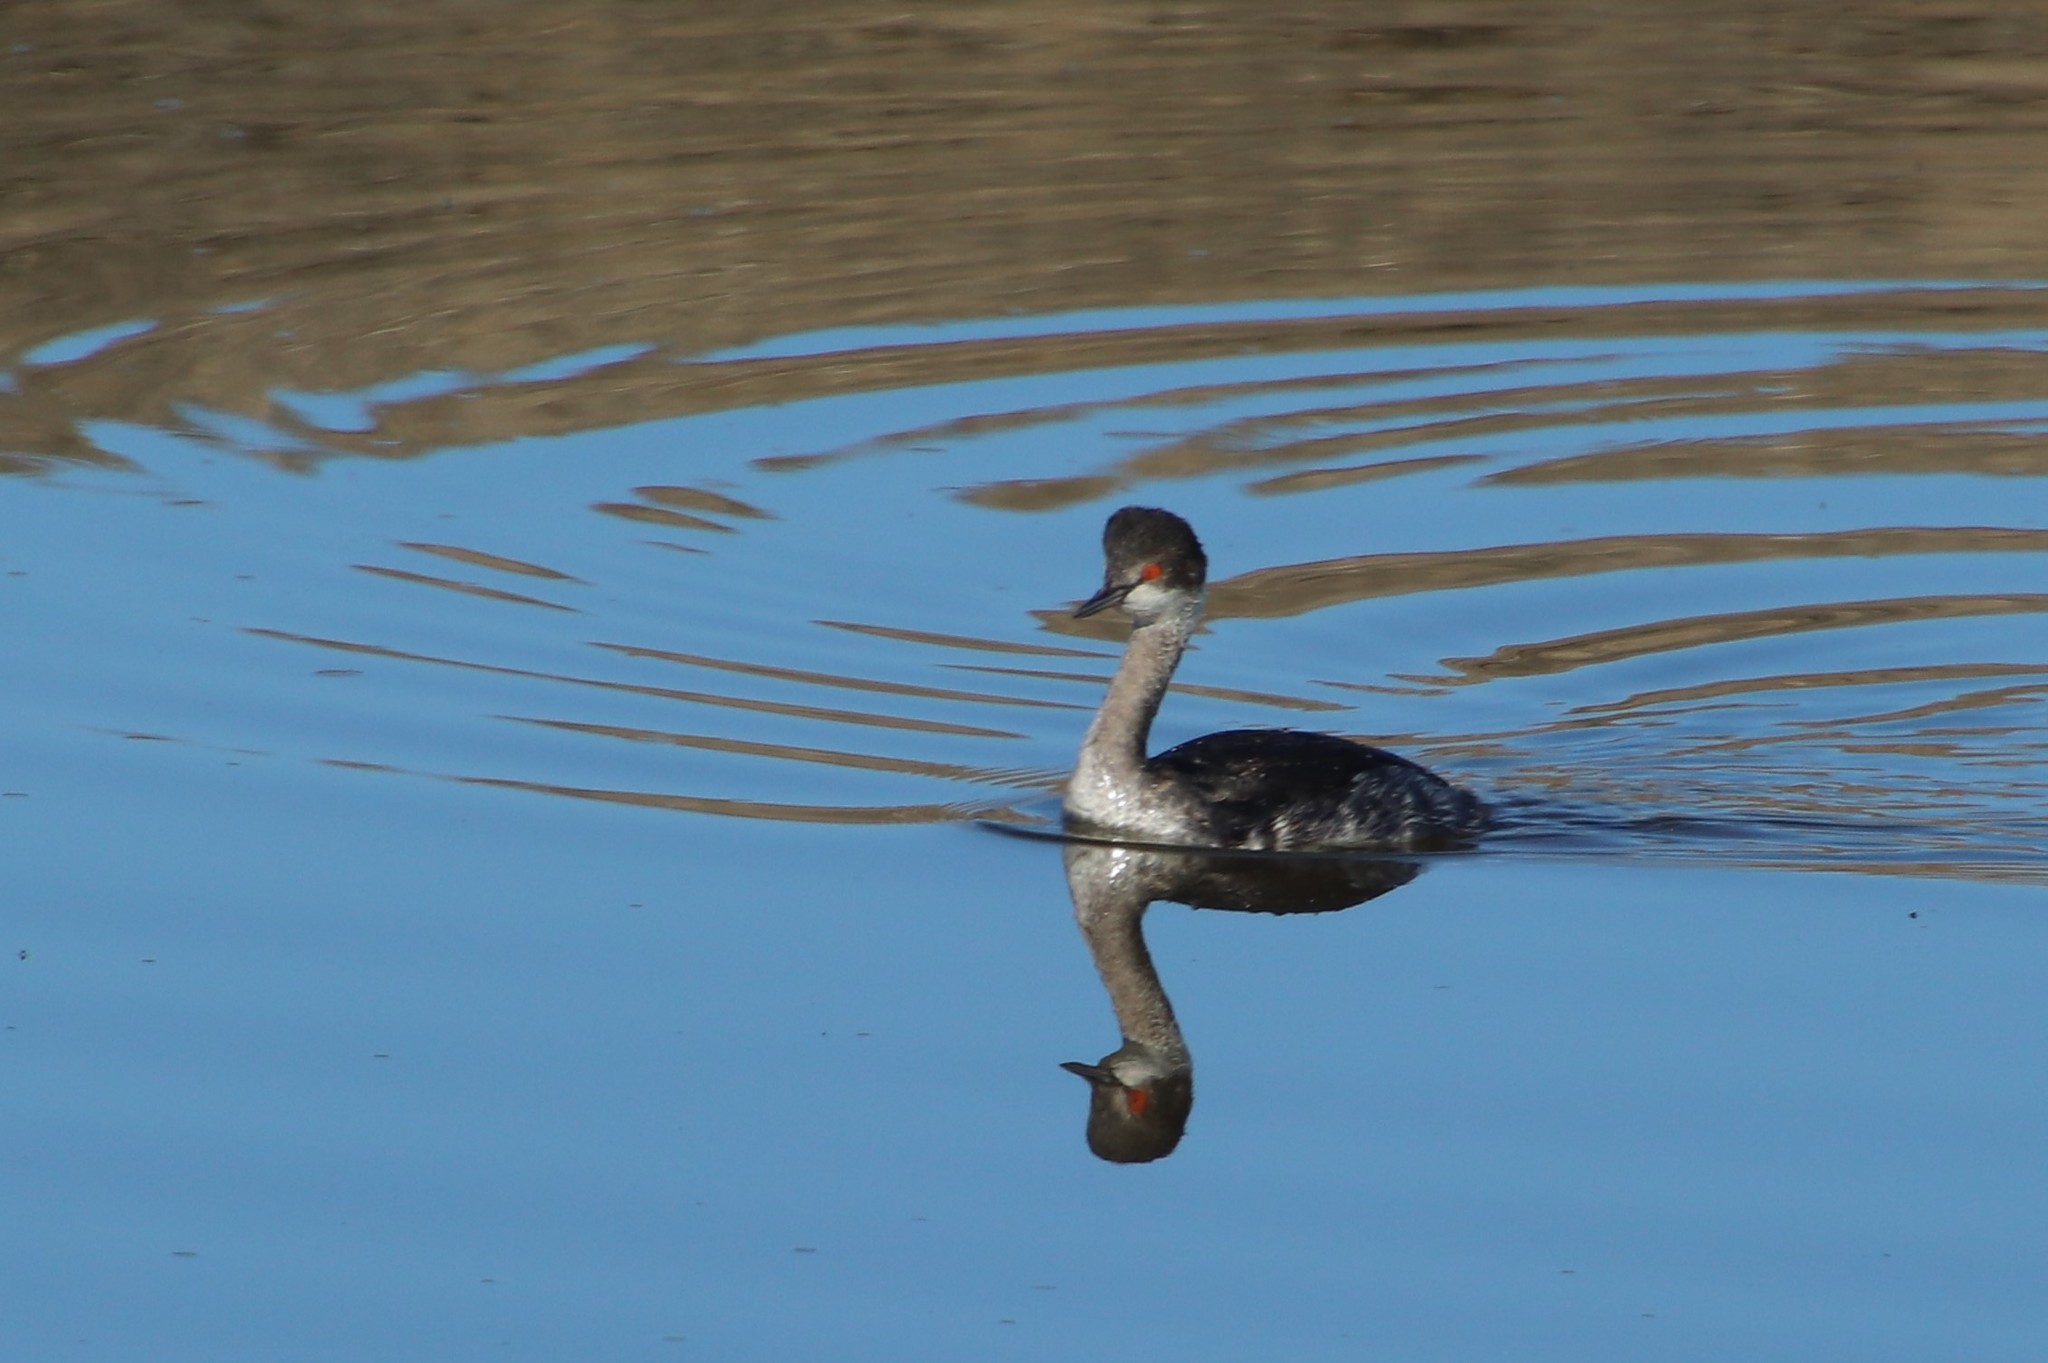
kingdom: Animalia
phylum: Chordata
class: Aves
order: Podicipediformes
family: Podicipedidae
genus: Podiceps
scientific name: Podiceps nigricollis
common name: Black-necked grebe
